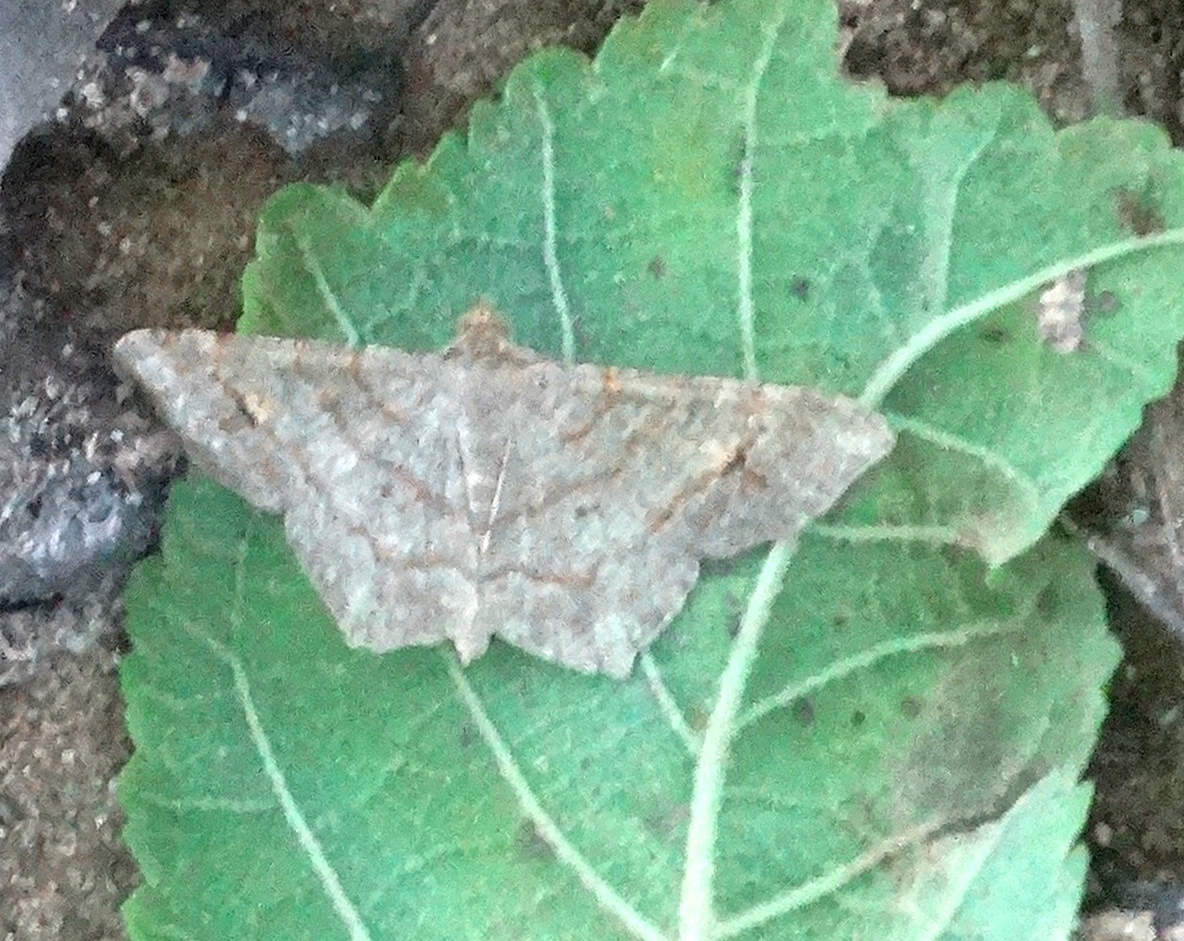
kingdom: Animalia
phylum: Arthropoda
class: Insecta
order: Lepidoptera
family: Geometridae
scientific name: Geometridae
